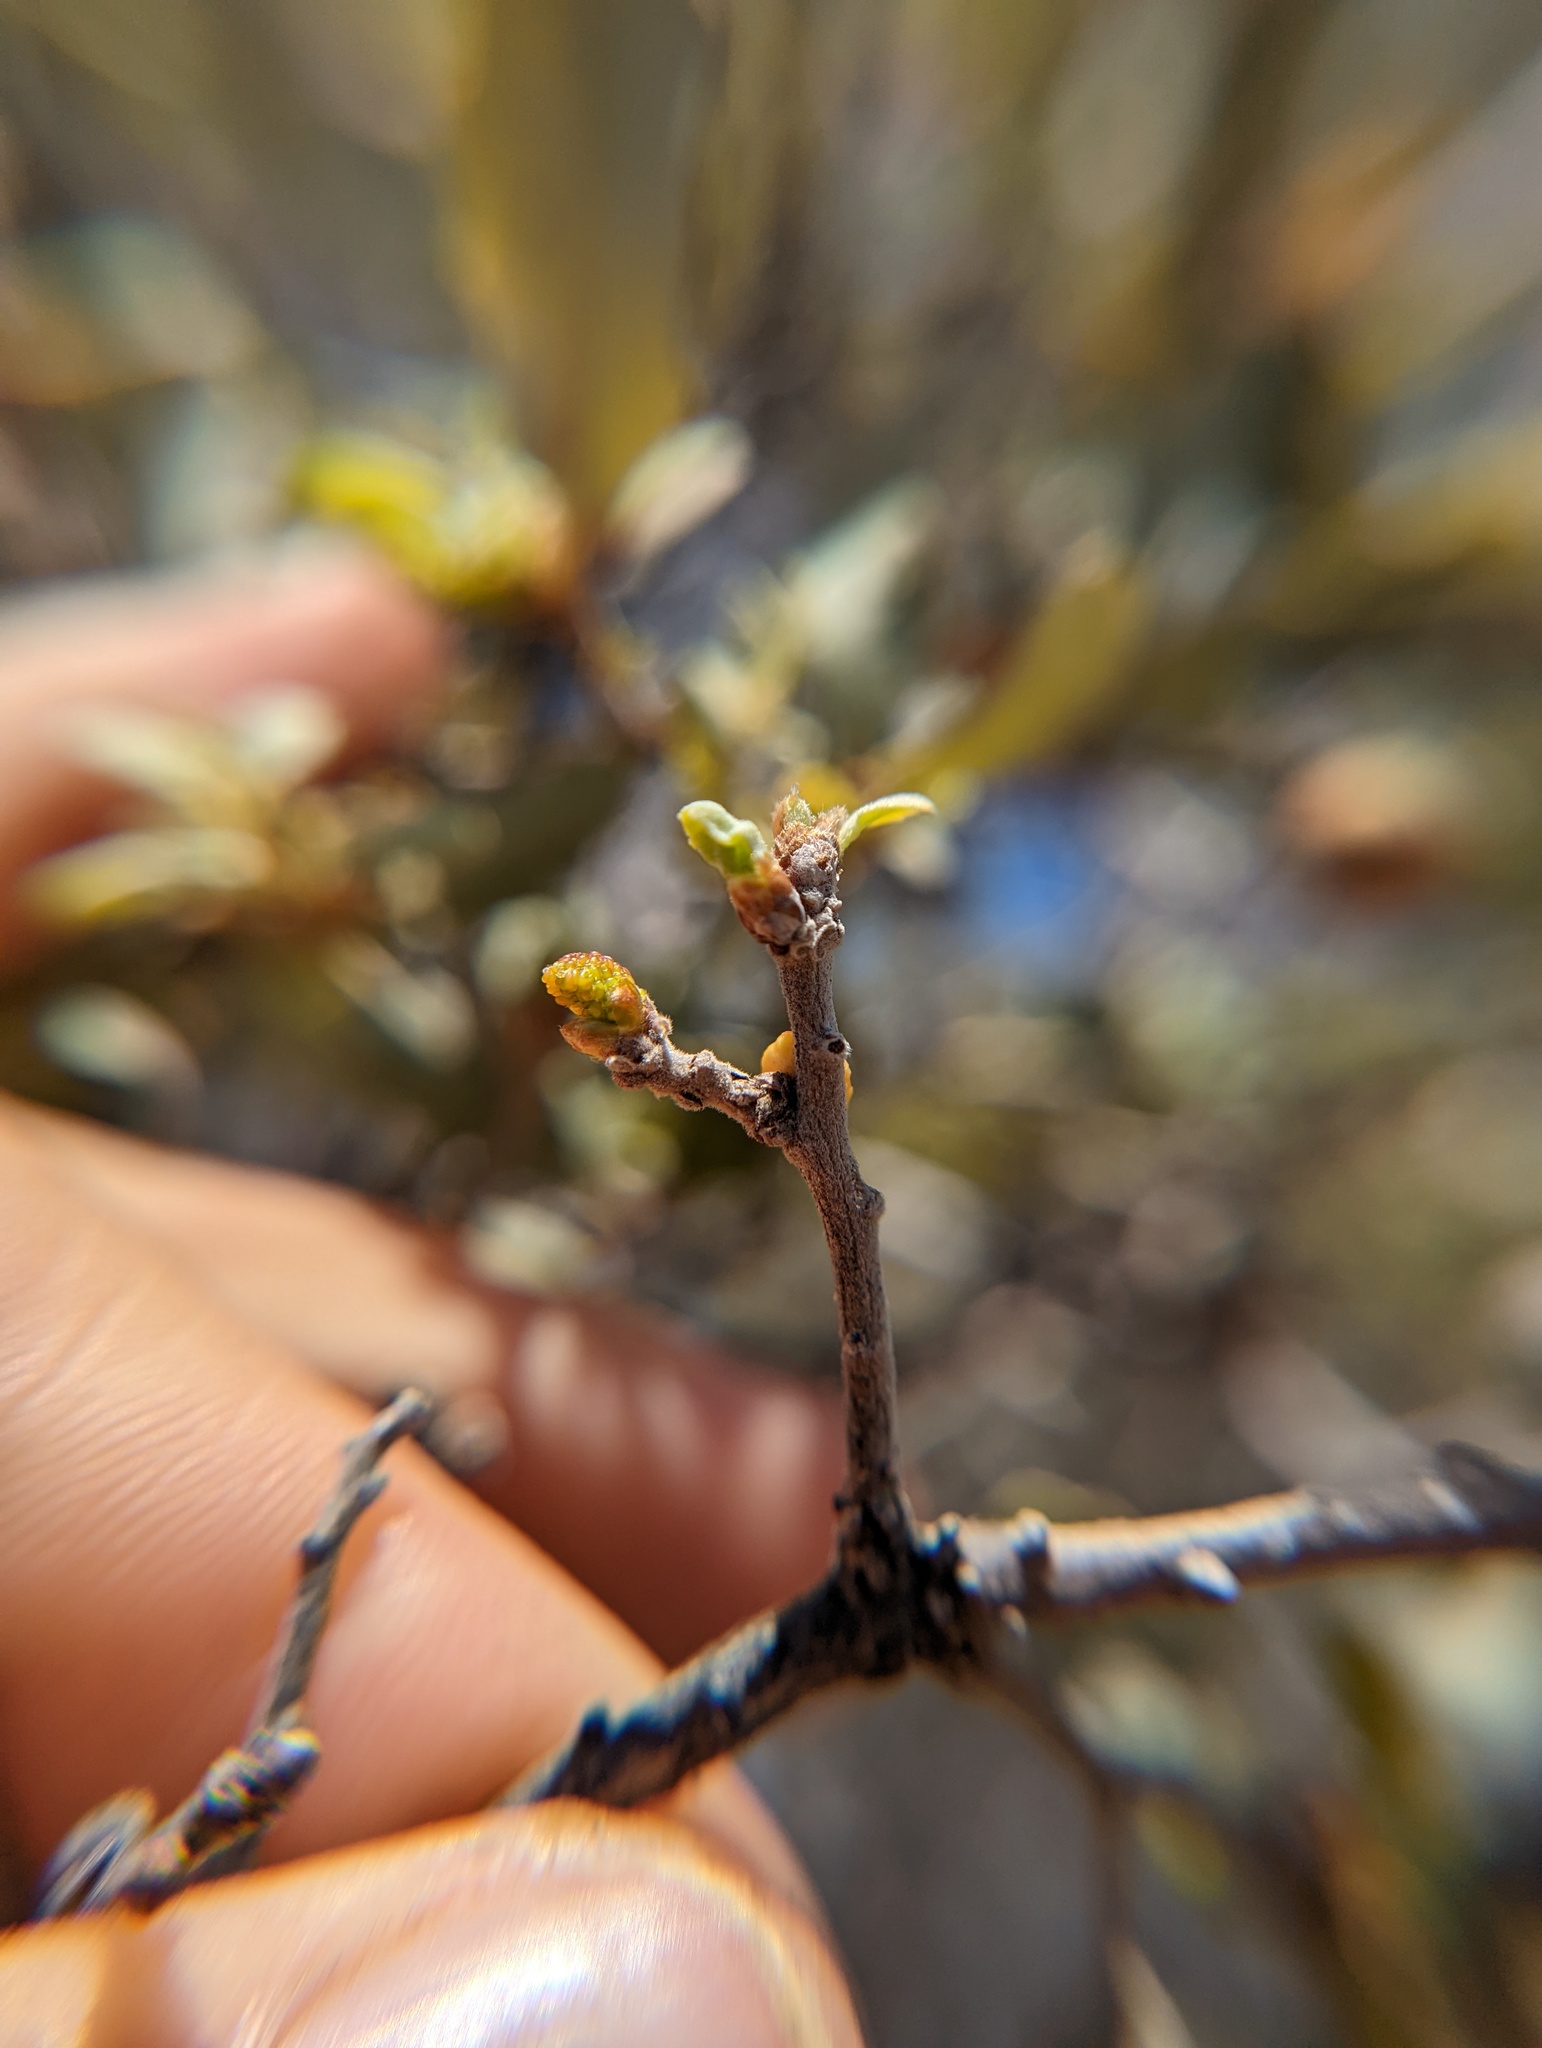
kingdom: Animalia
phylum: Arthropoda
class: Insecta
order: Hemiptera
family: Cerococcidae
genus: Cerococcus
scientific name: Cerococcus quercus
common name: Oak cerococcus
